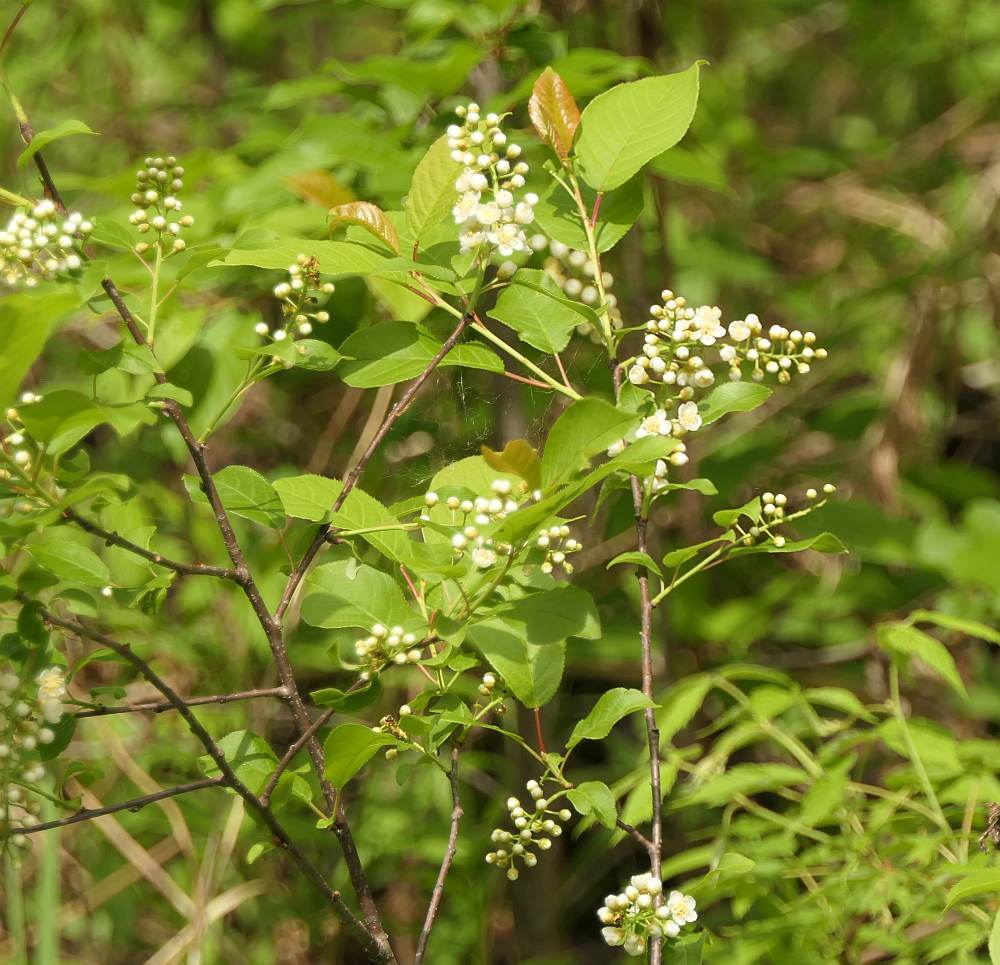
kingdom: Plantae
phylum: Tracheophyta
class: Magnoliopsida
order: Rosales
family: Rosaceae
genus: Prunus
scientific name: Prunus virginiana
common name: Chokecherry
